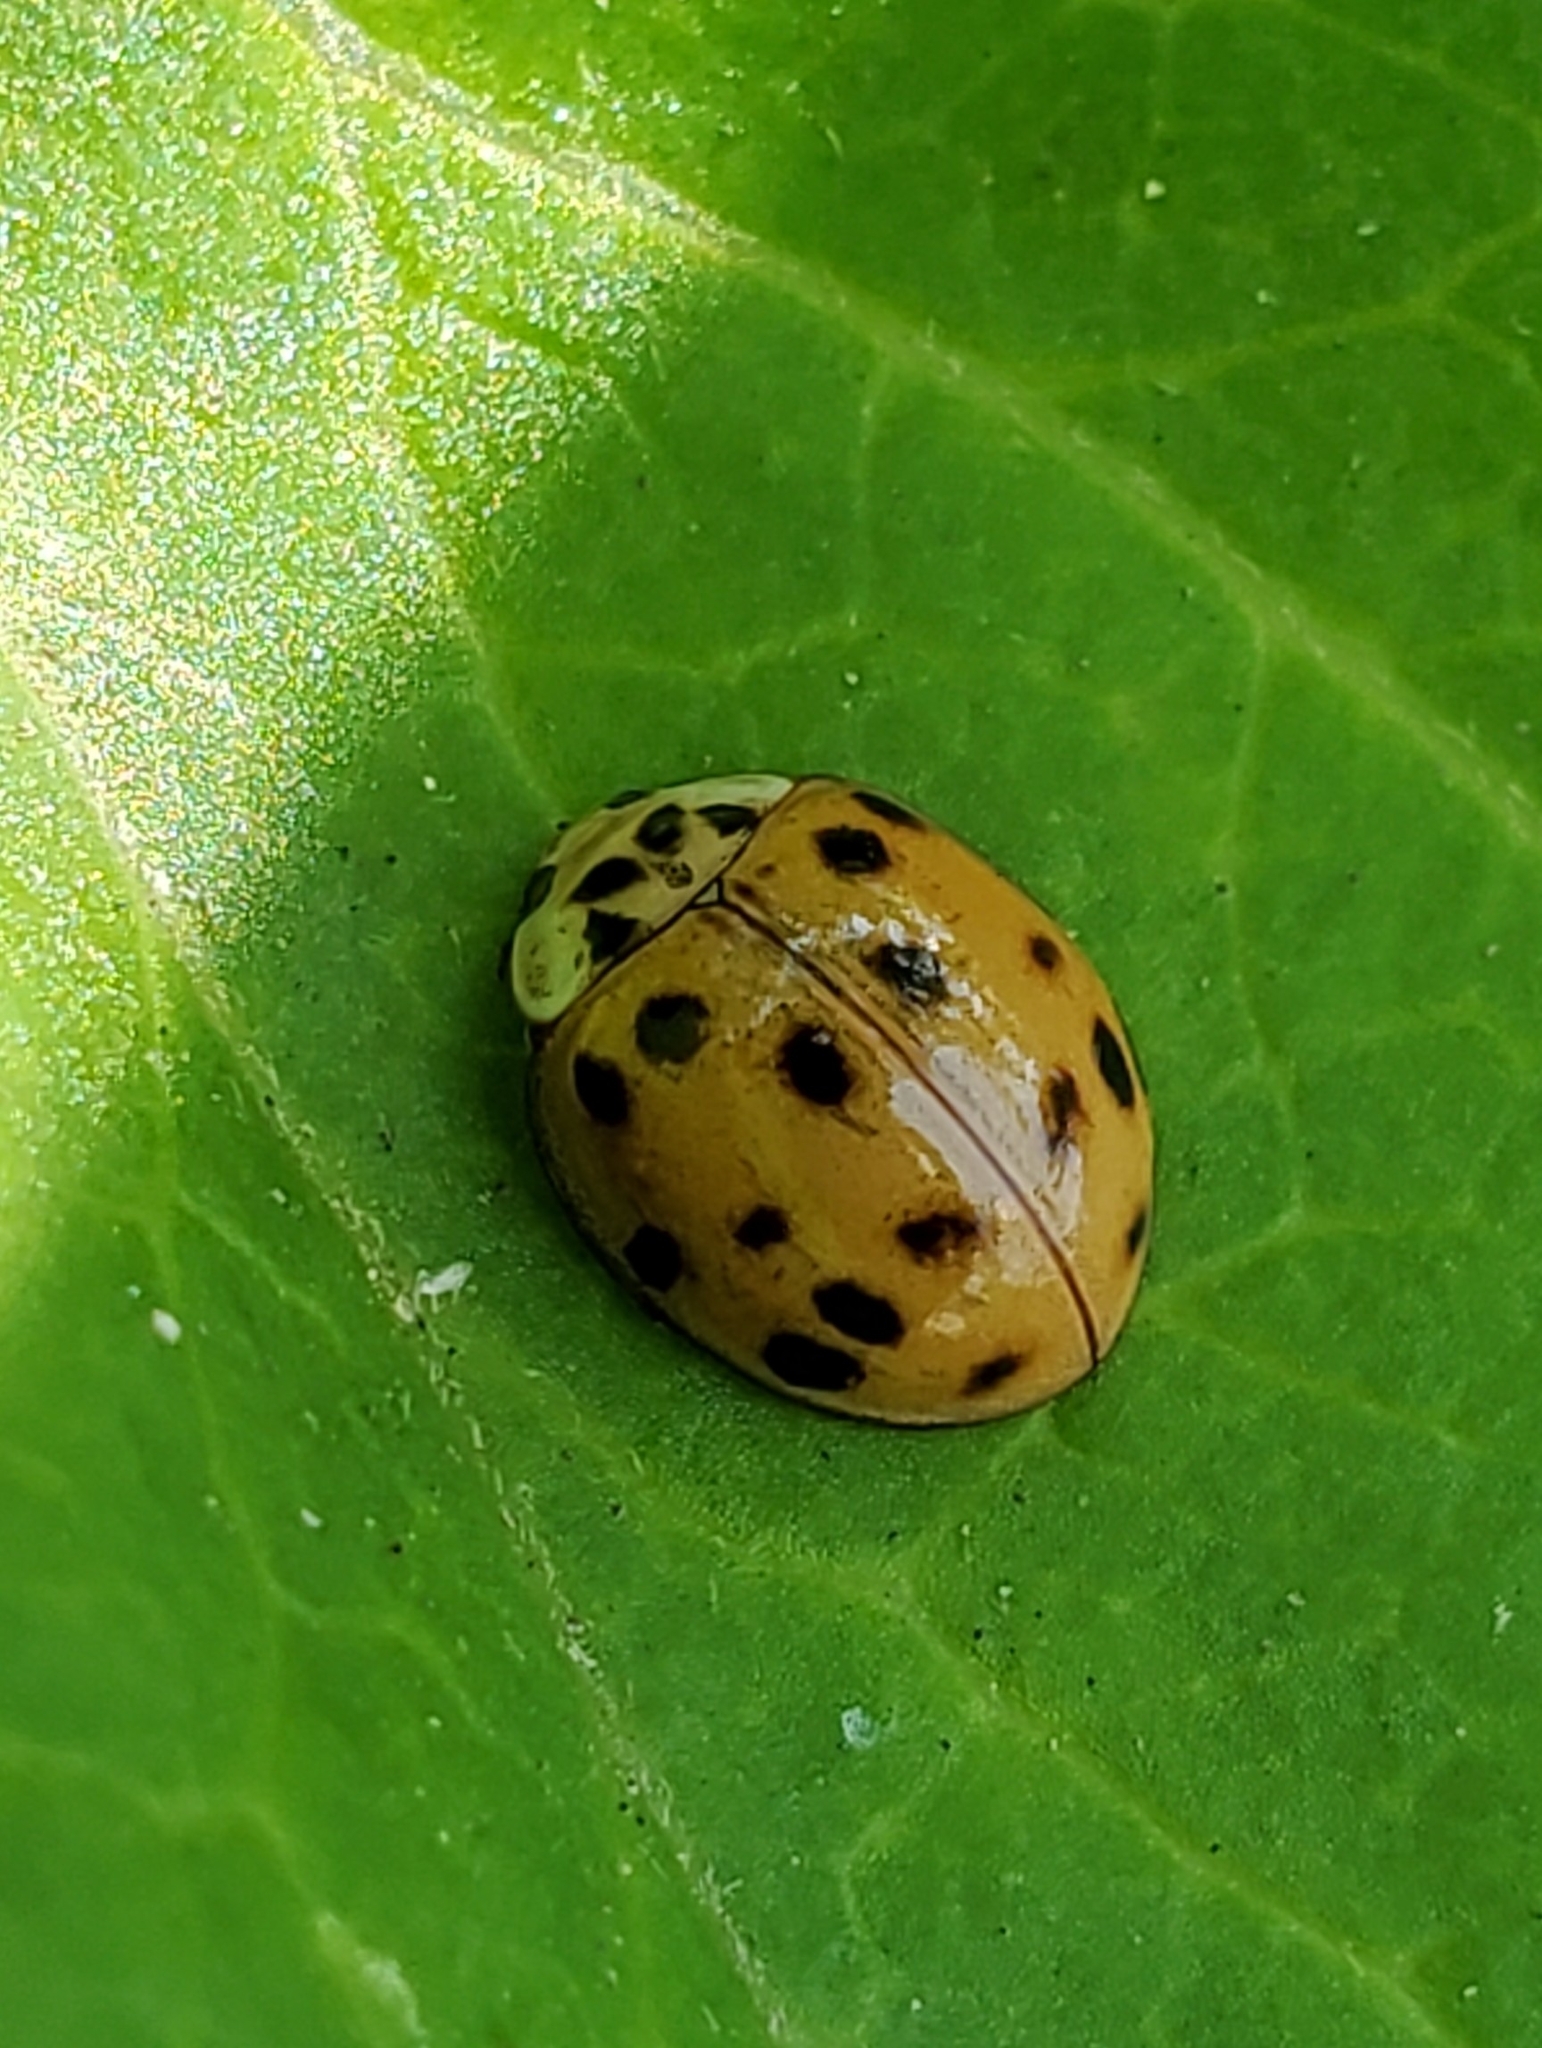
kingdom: Animalia
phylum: Arthropoda
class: Insecta
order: Coleoptera
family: Coccinellidae
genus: Harmonia
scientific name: Harmonia axyridis
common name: Harlequin ladybird
